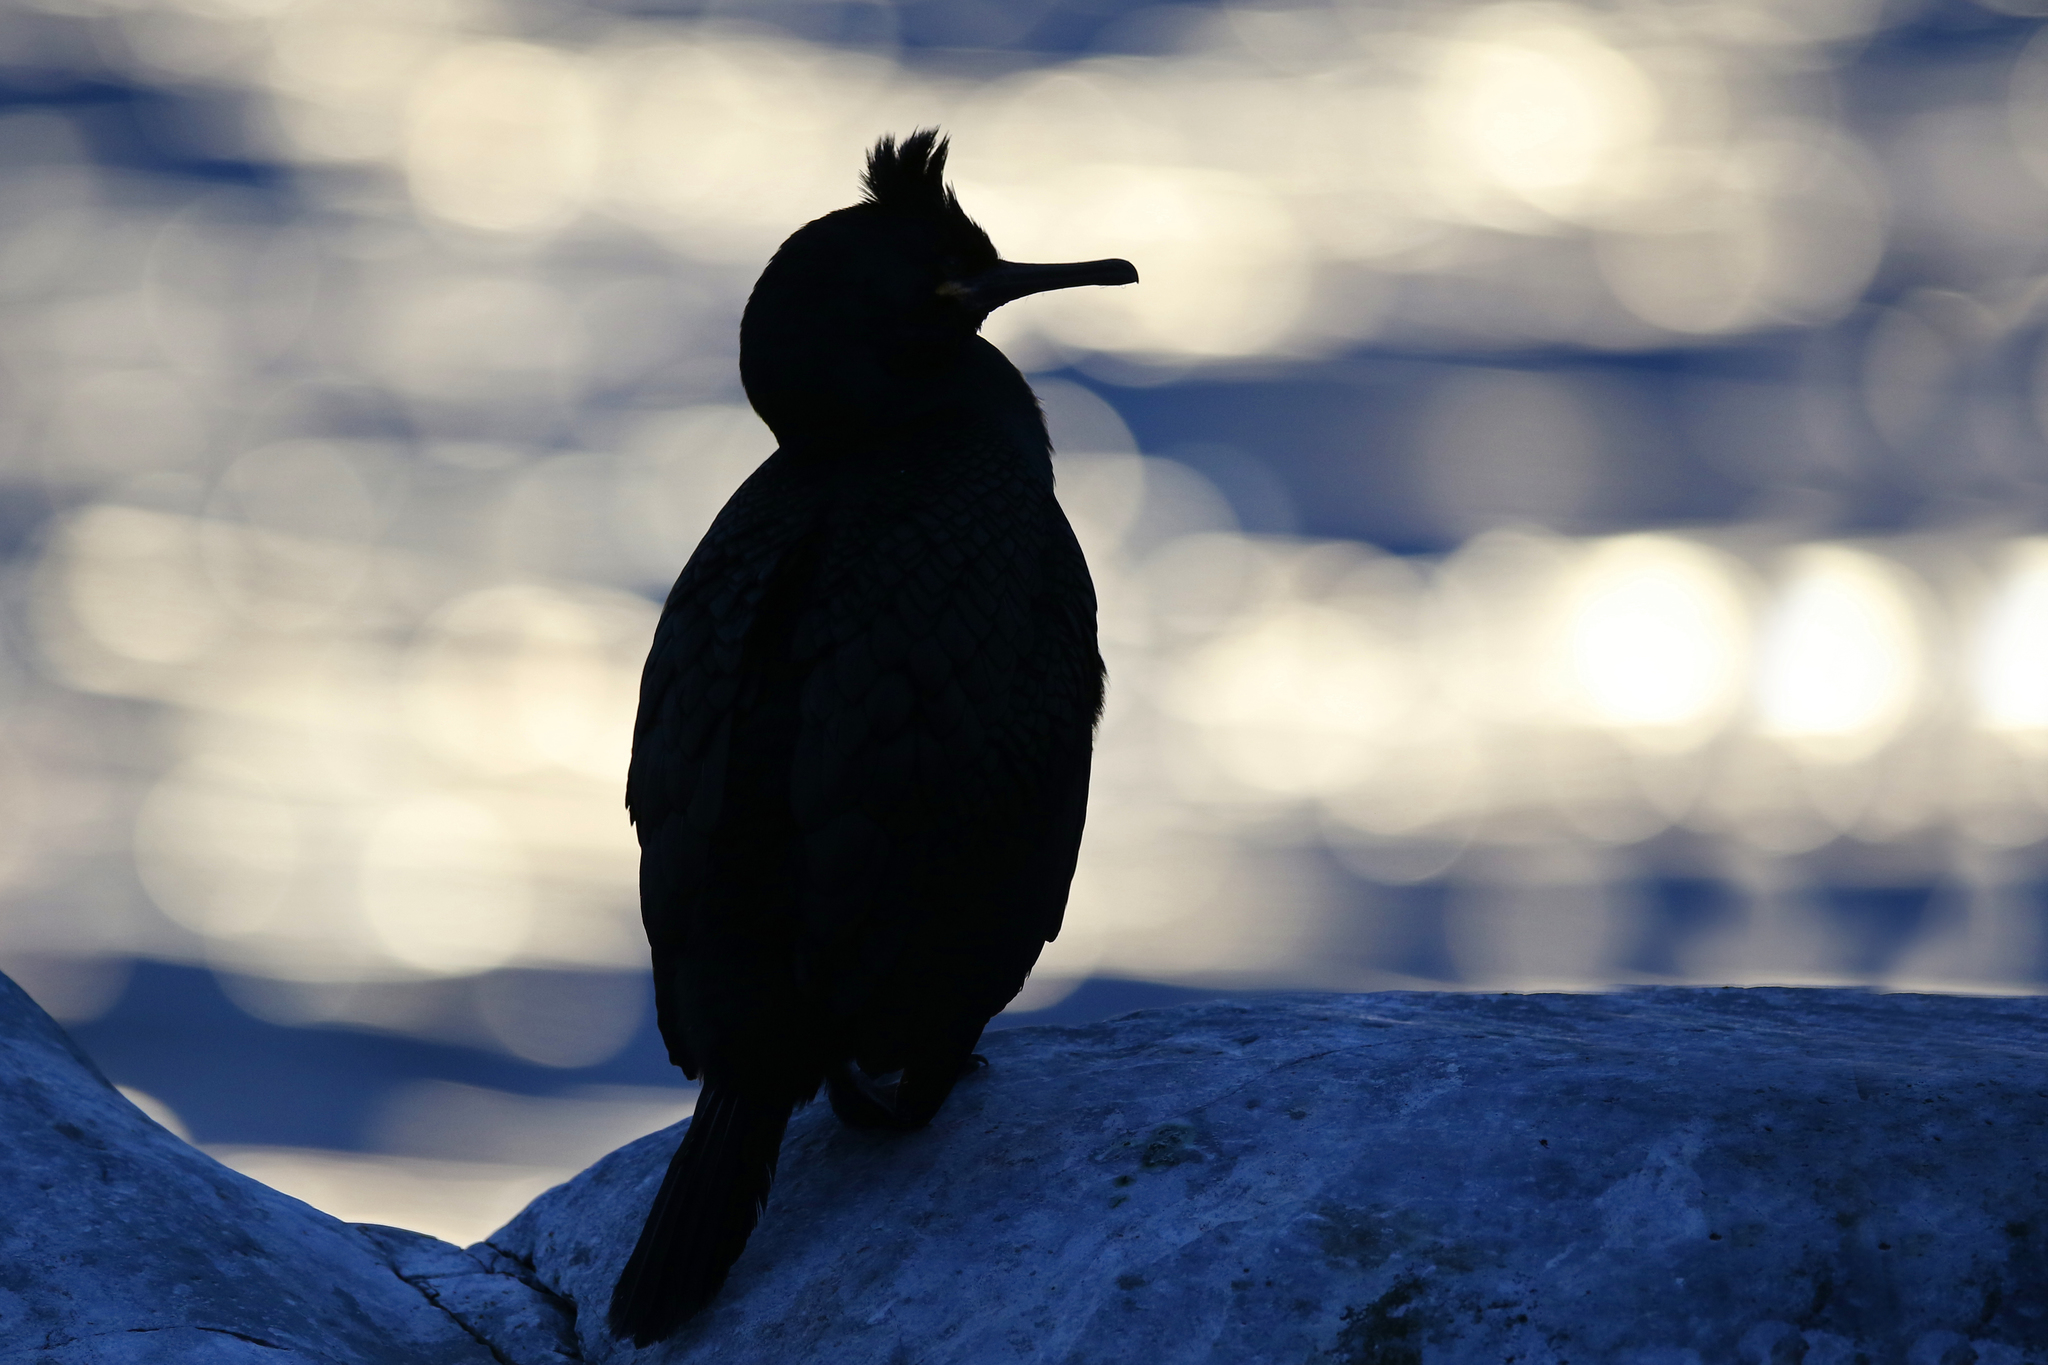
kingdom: Animalia
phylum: Chordata
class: Aves
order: Suliformes
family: Phalacrocoracidae
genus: Phalacrocorax
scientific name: Phalacrocorax aristotelis
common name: European shag
